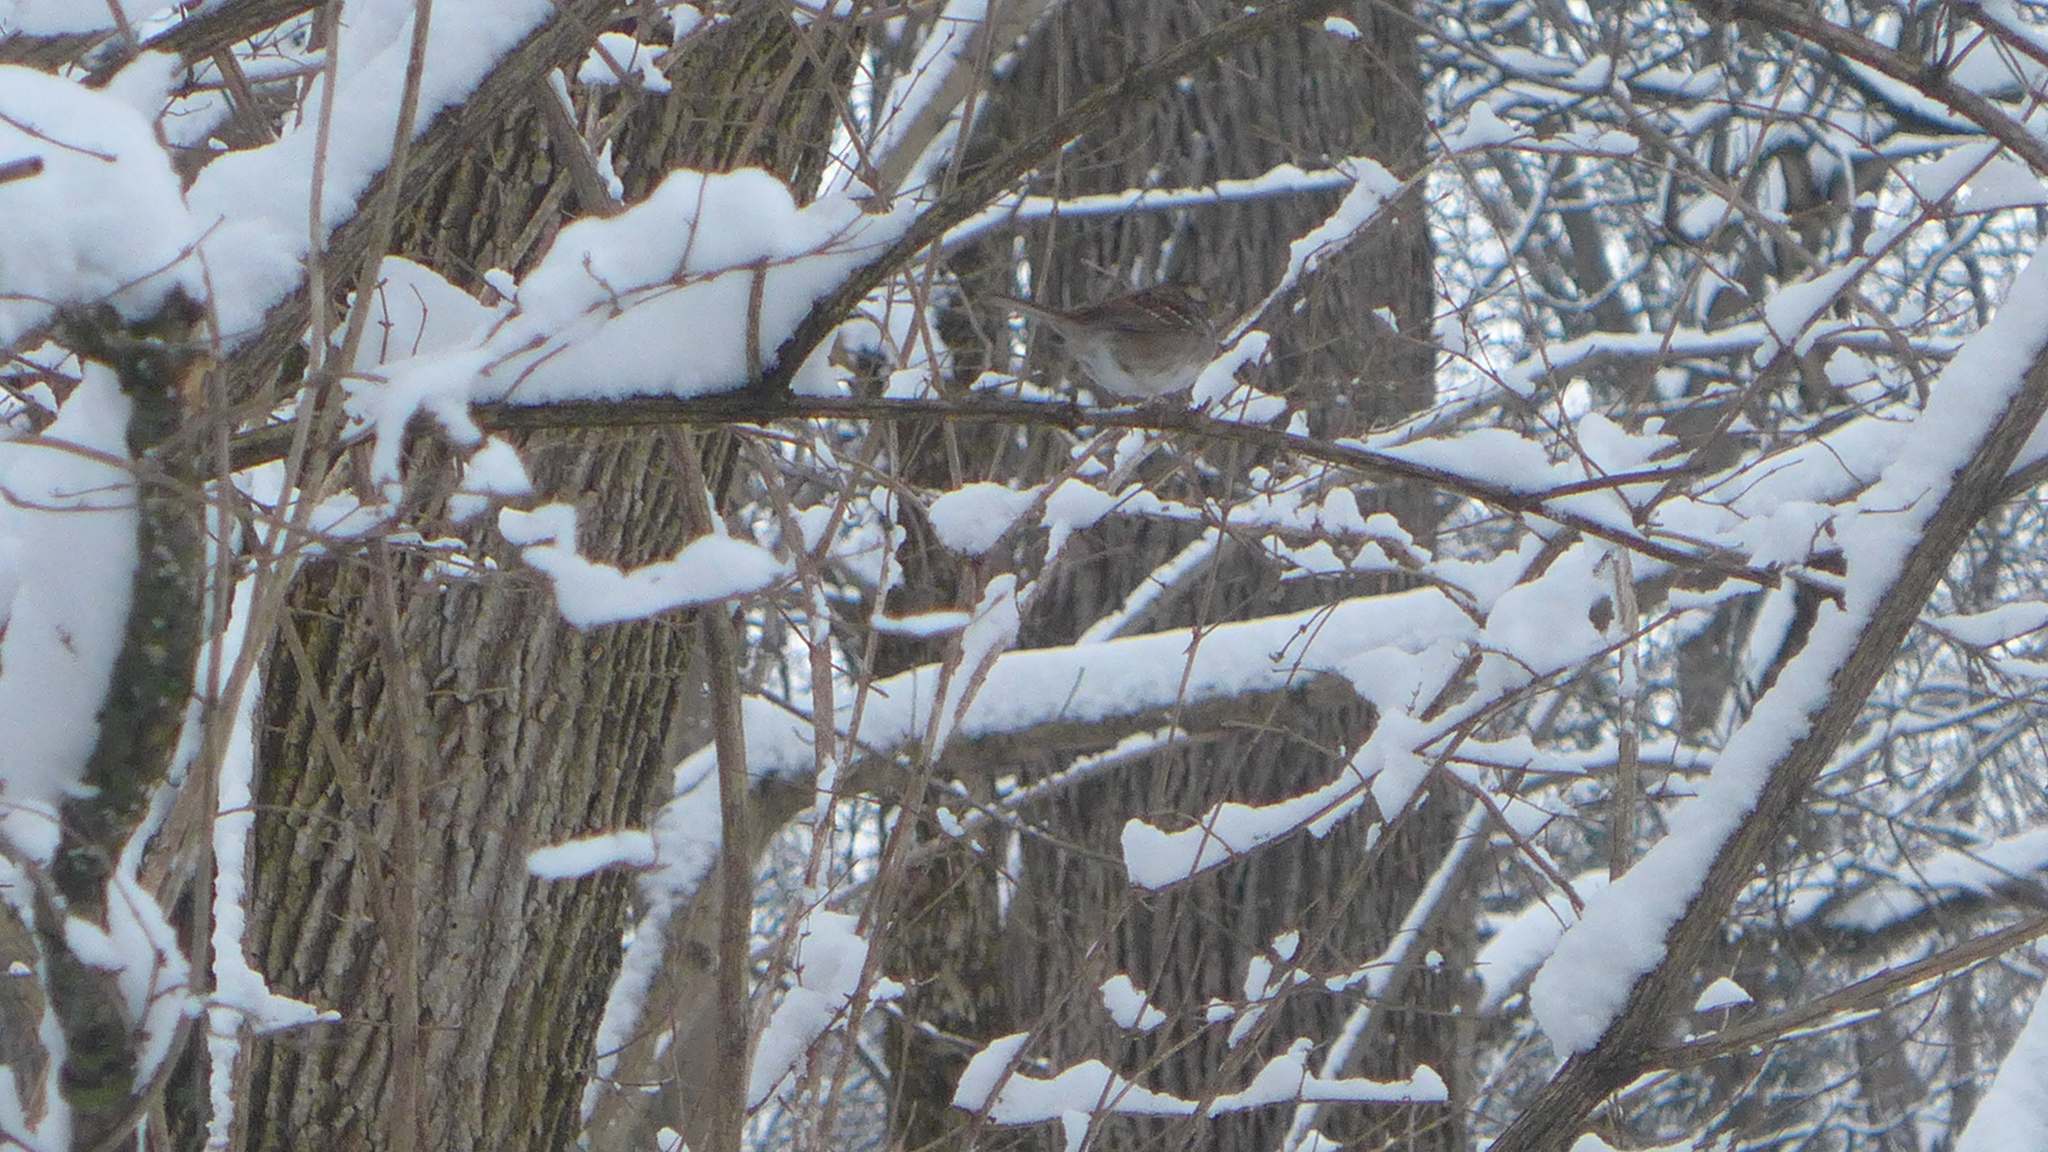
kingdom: Animalia
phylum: Chordata
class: Aves
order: Passeriformes
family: Passerellidae
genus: Zonotrichia
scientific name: Zonotrichia albicollis
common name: White-throated sparrow
